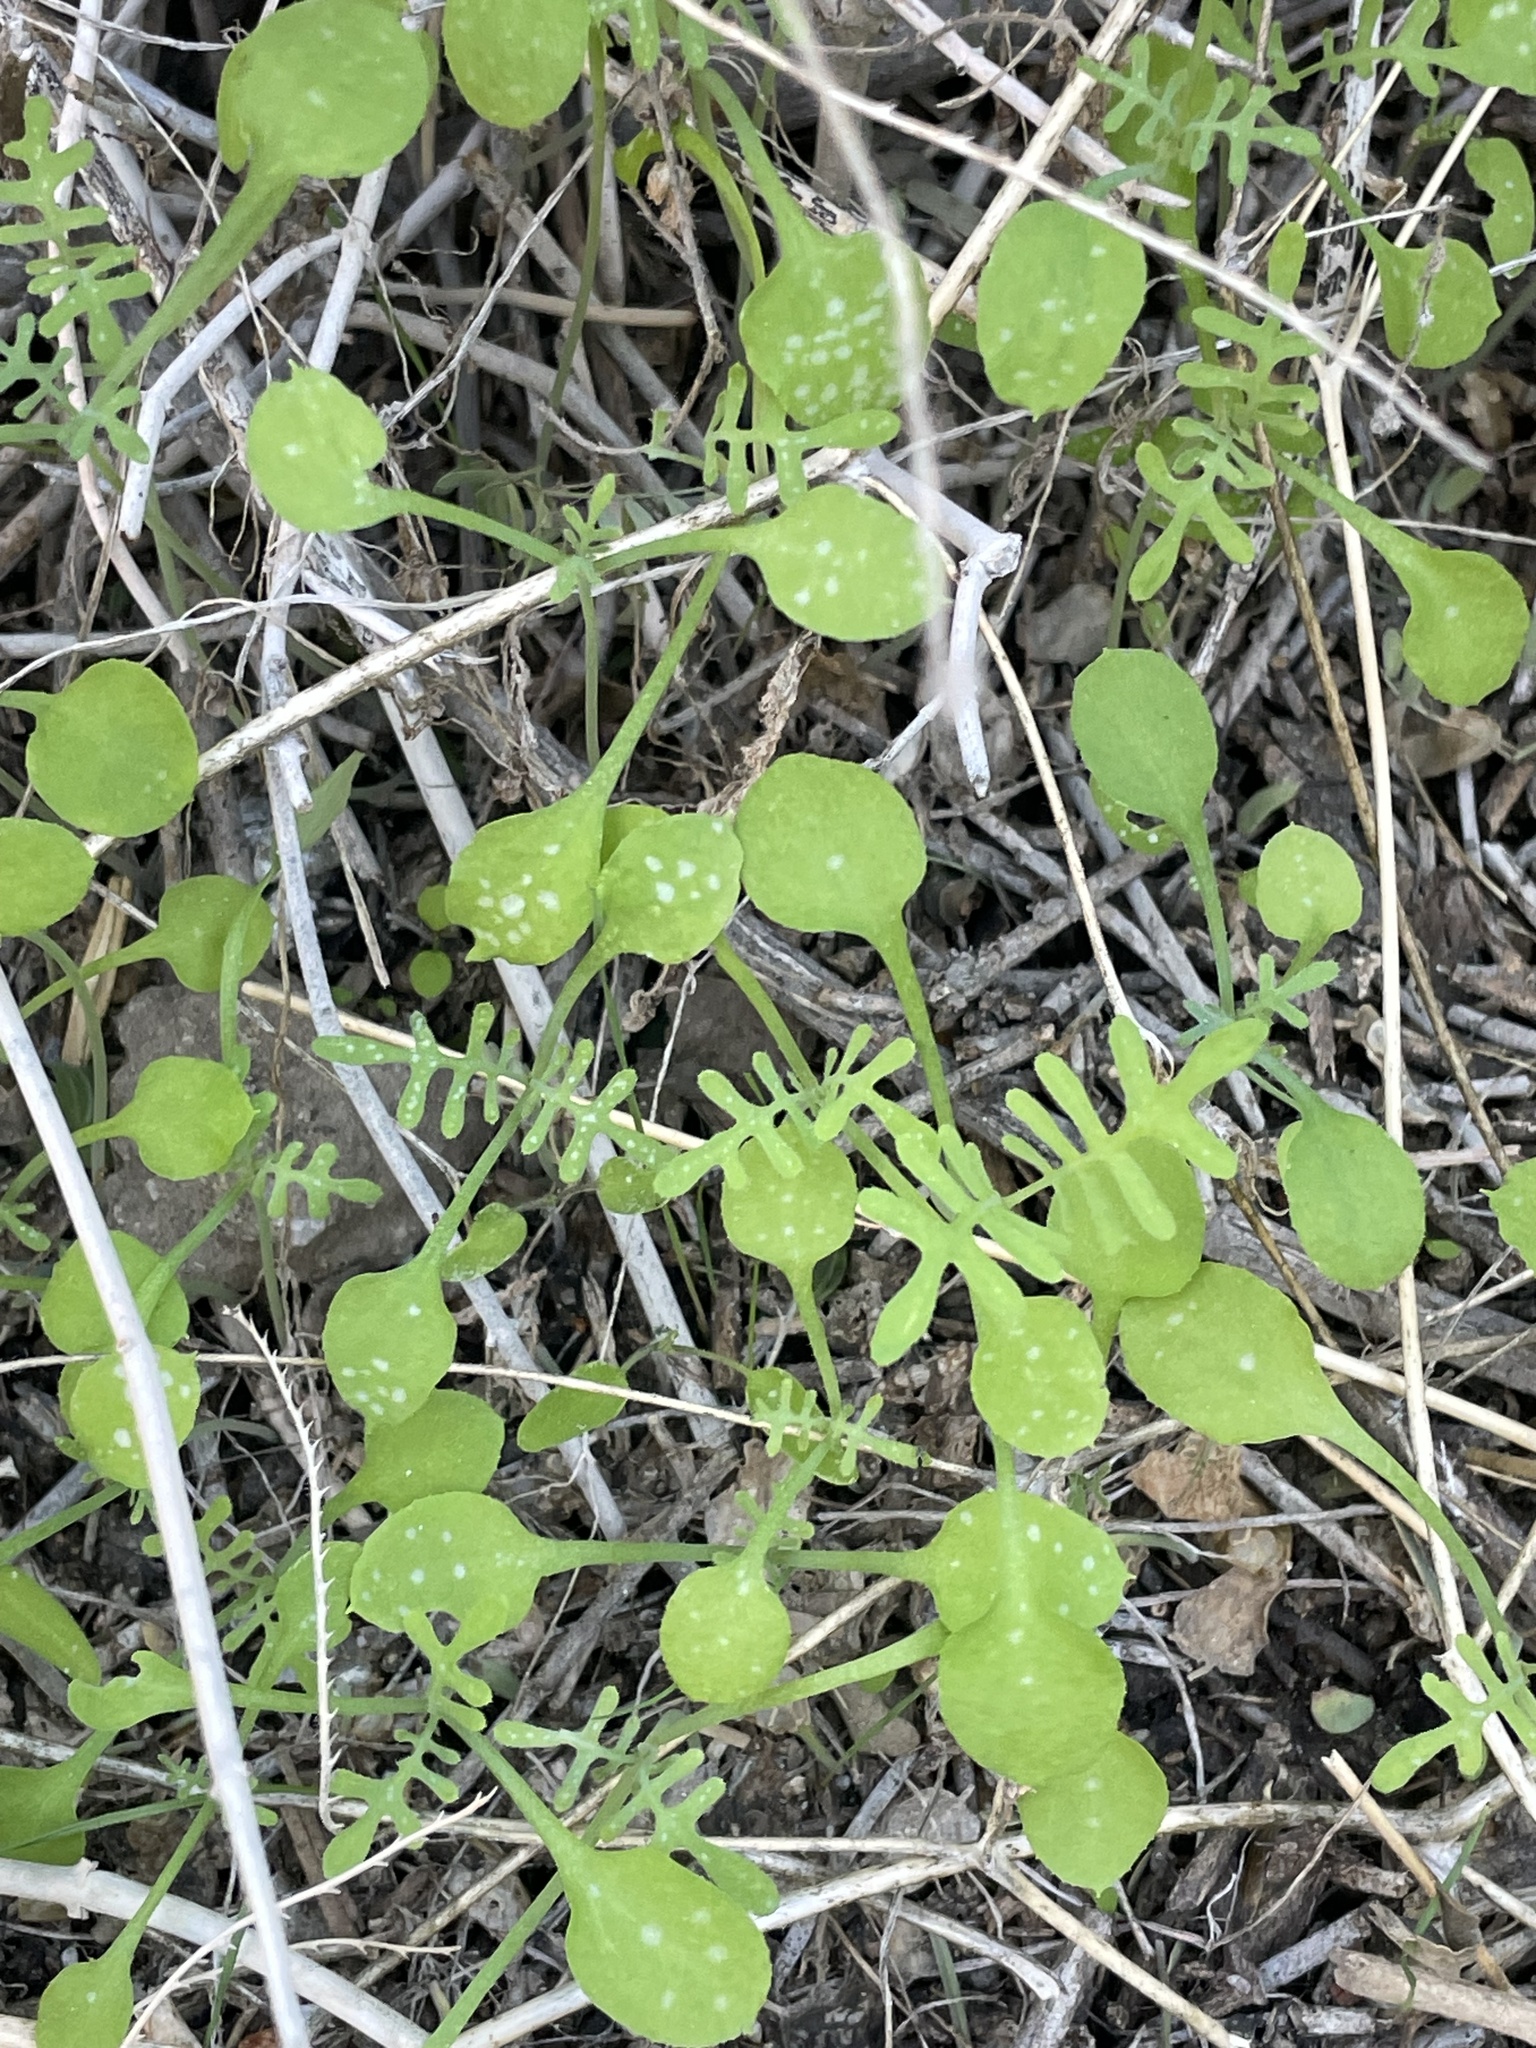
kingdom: Plantae
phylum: Tracheophyta
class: Magnoliopsida
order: Boraginales
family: Hydrophyllaceae
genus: Pholistoma
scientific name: Pholistoma membranaceum
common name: White fiesta-flower
